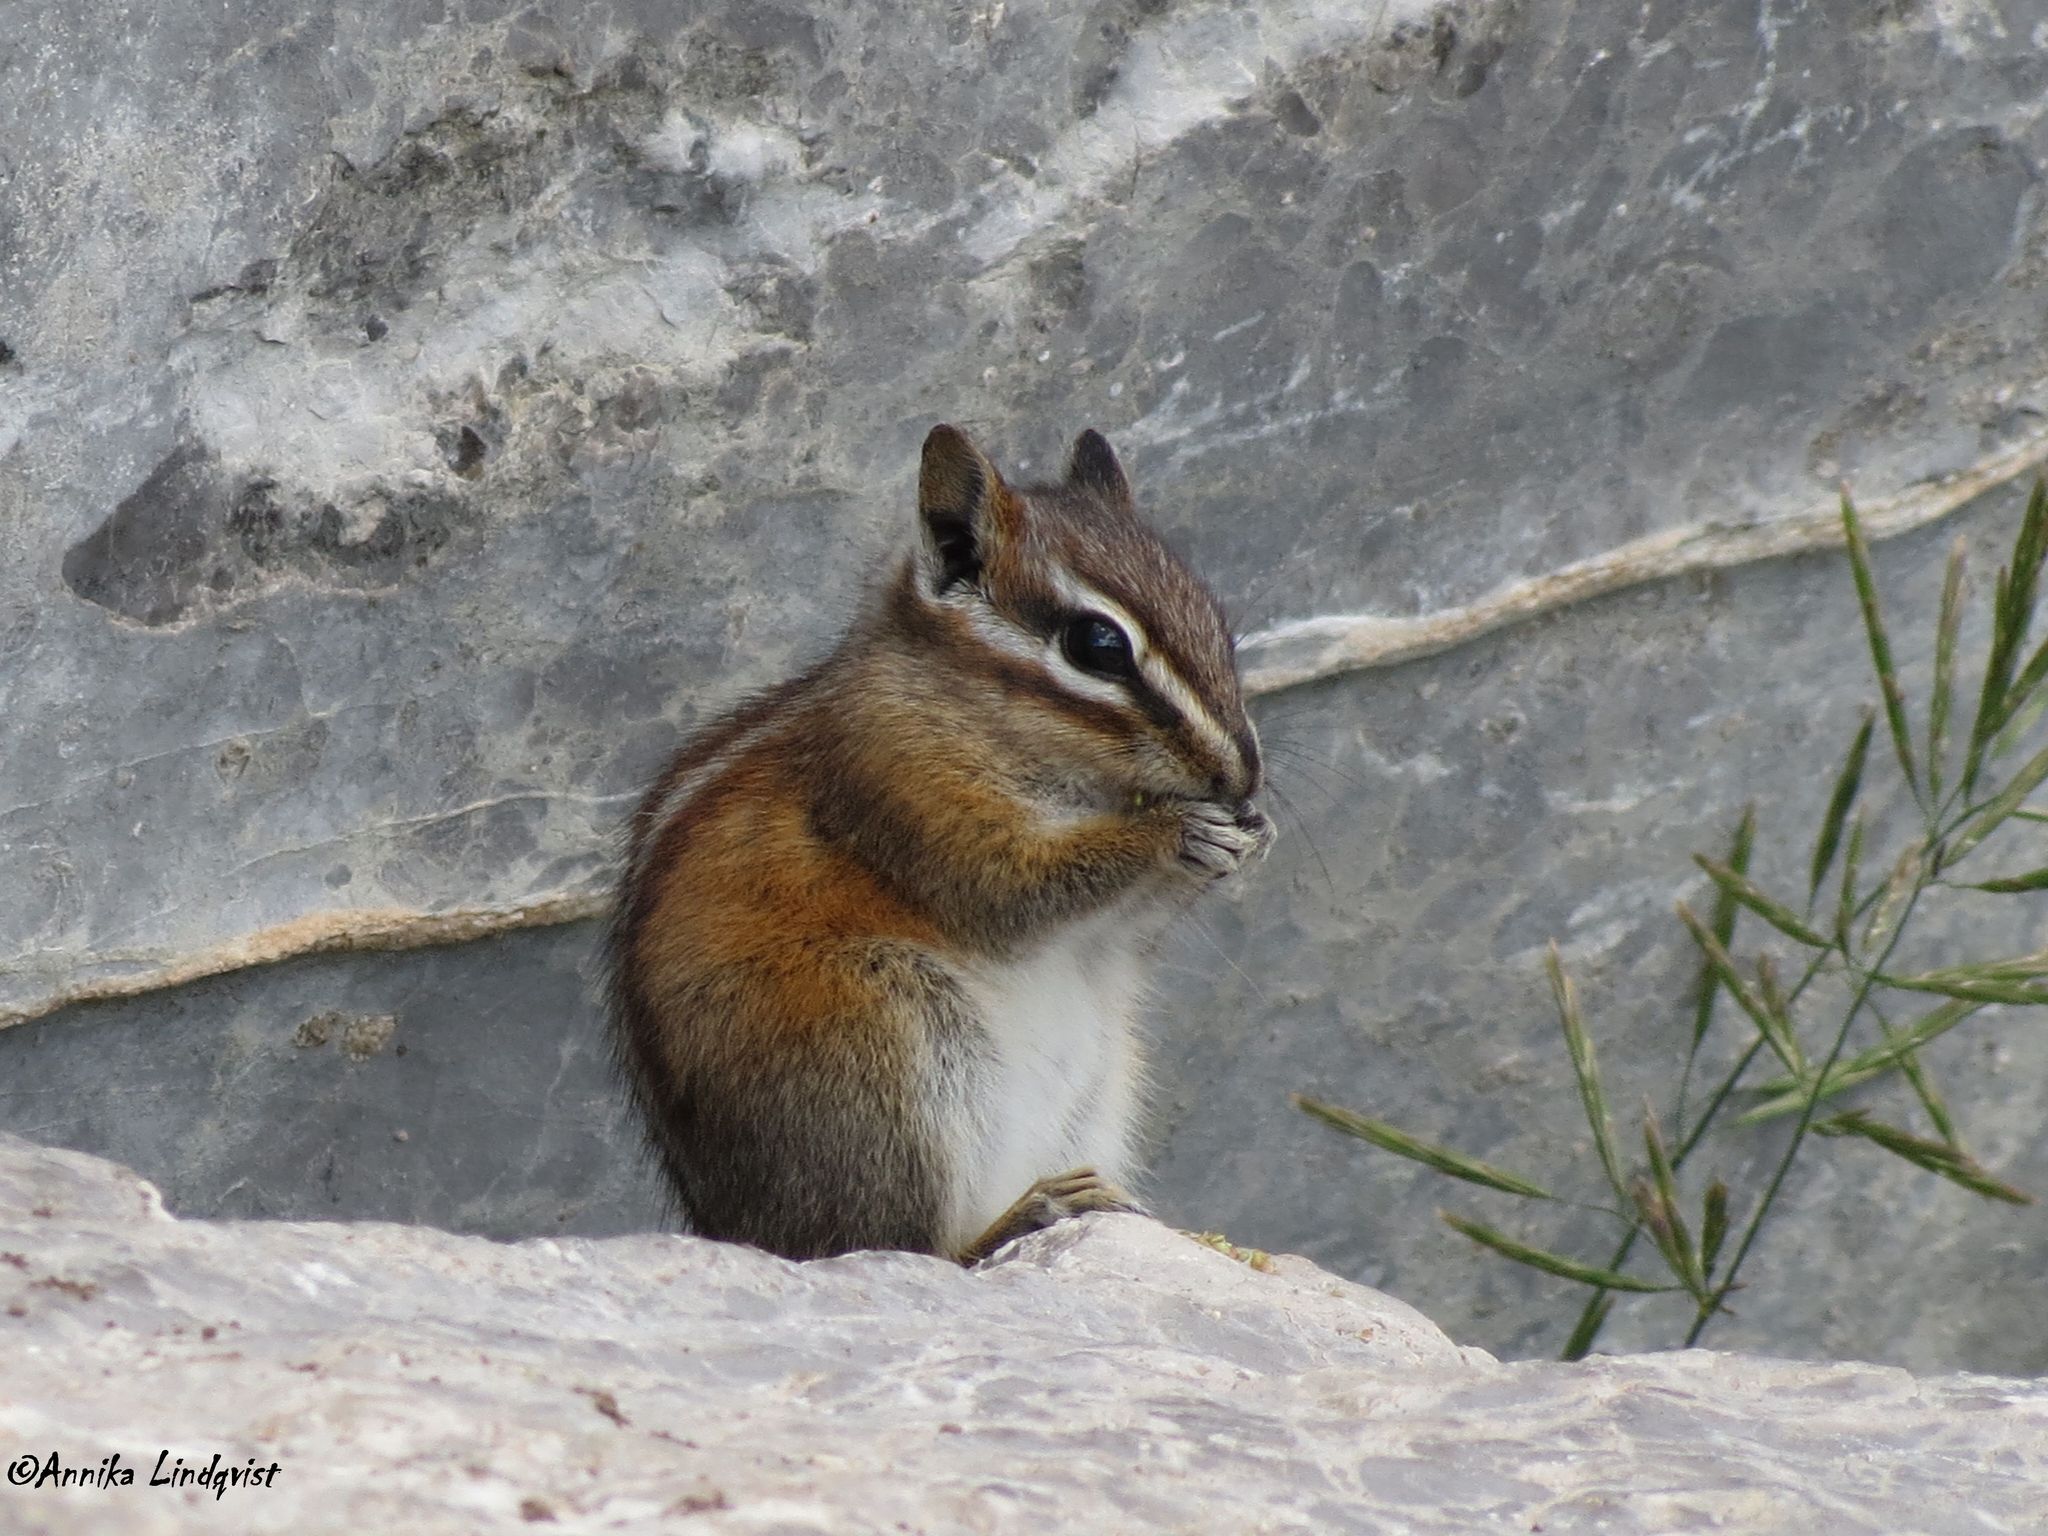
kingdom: Animalia
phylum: Chordata
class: Mammalia
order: Rodentia
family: Sciuridae
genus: Tamias
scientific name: Tamias minimus
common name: Least chipmunk
